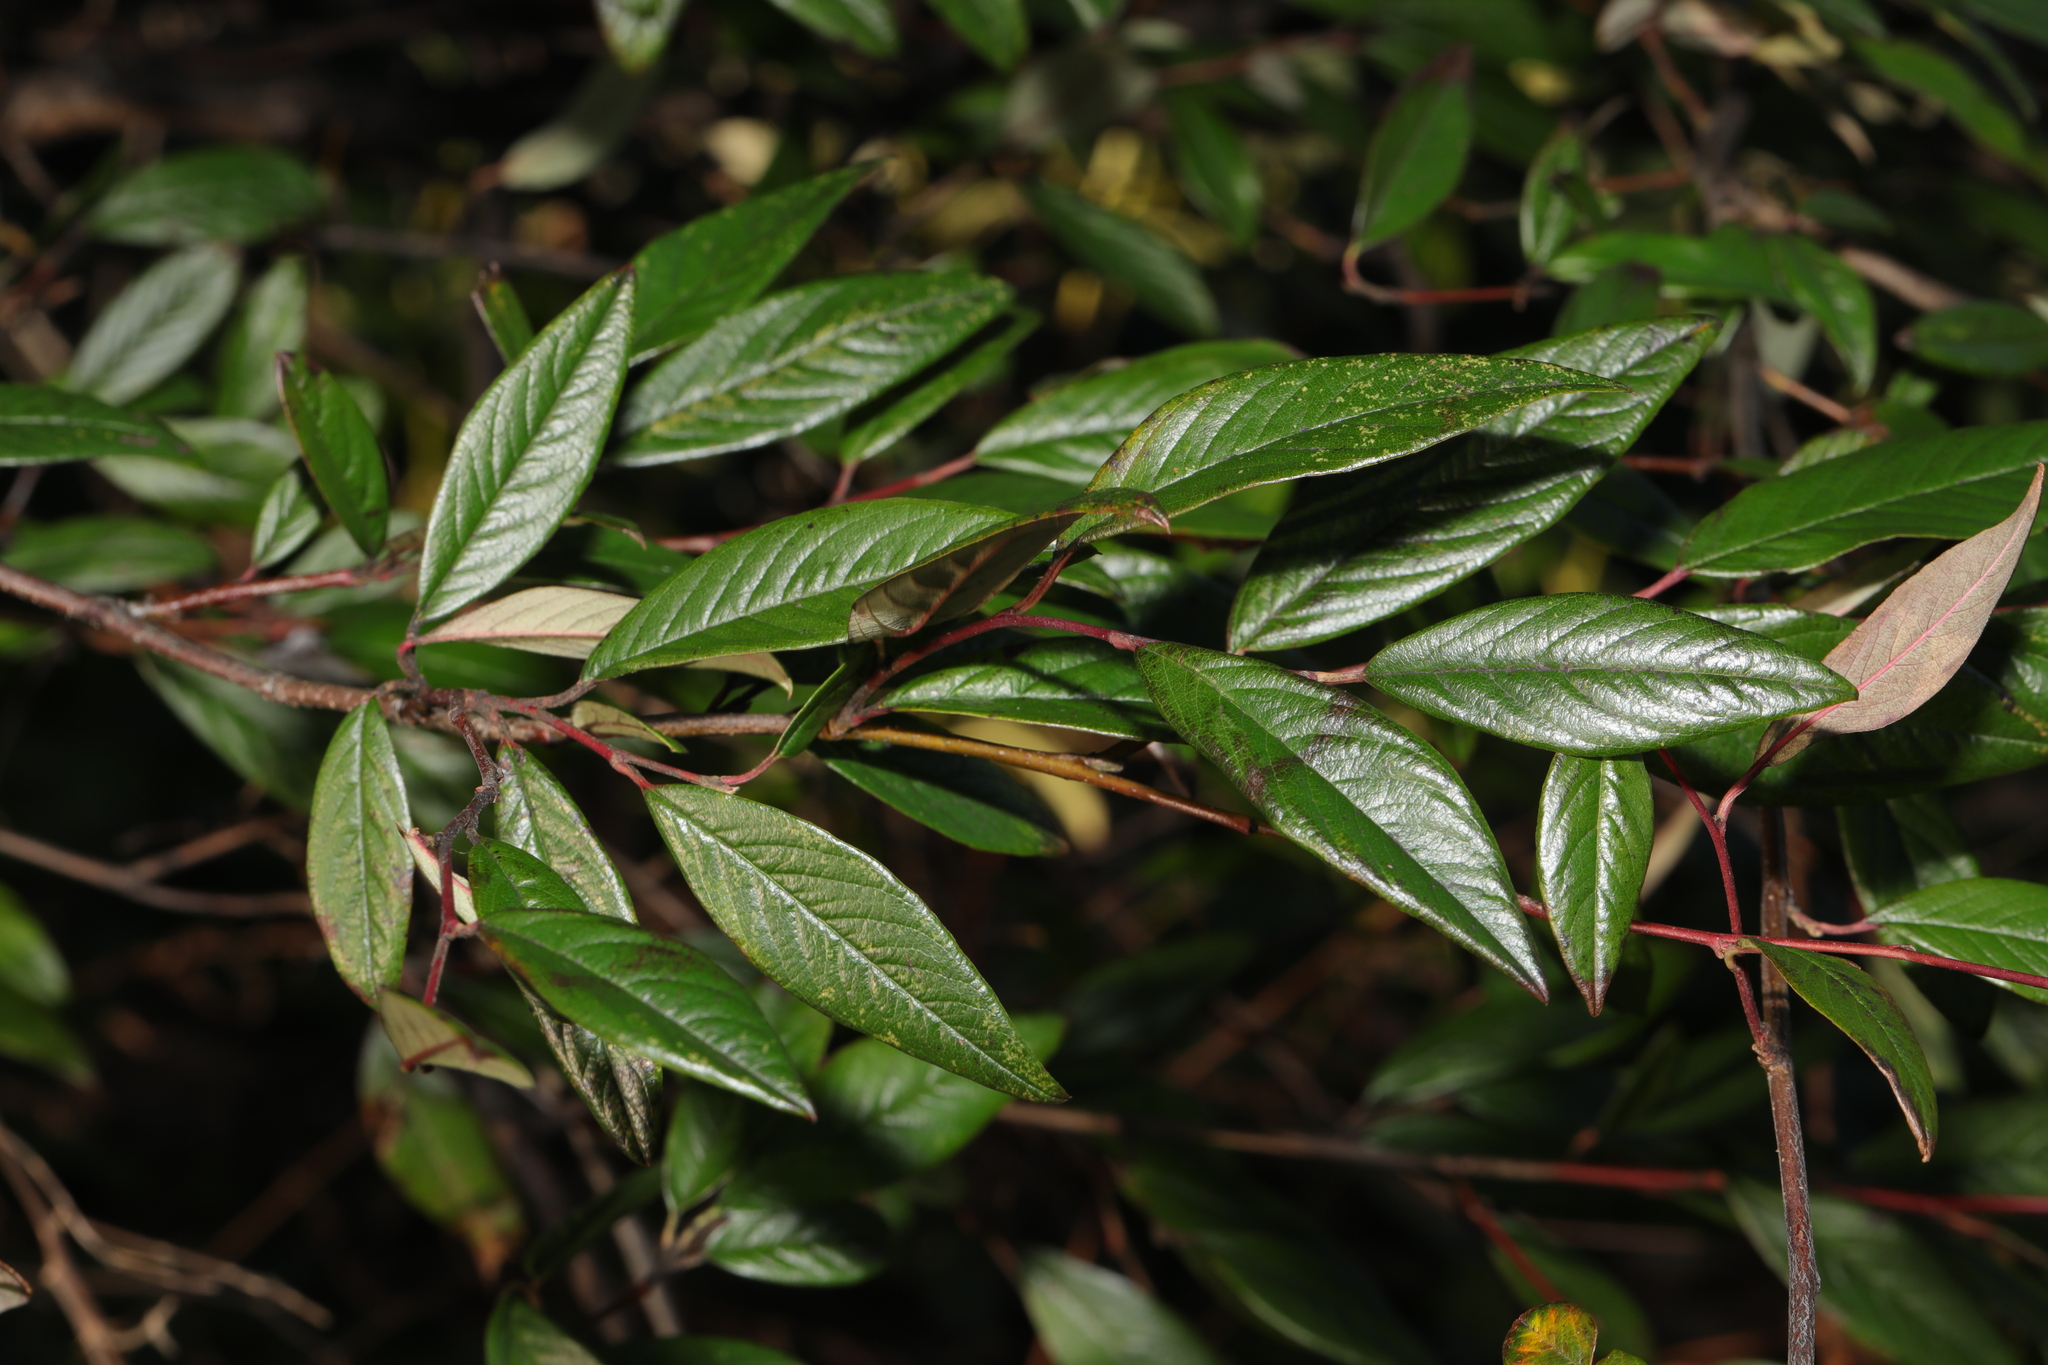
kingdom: Plantae
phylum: Tracheophyta
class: Magnoliopsida
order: Rosales
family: Rosaceae
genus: Cotoneaster
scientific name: Cotoneaster salicifolius
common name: Willow-leaved cotoneaster
